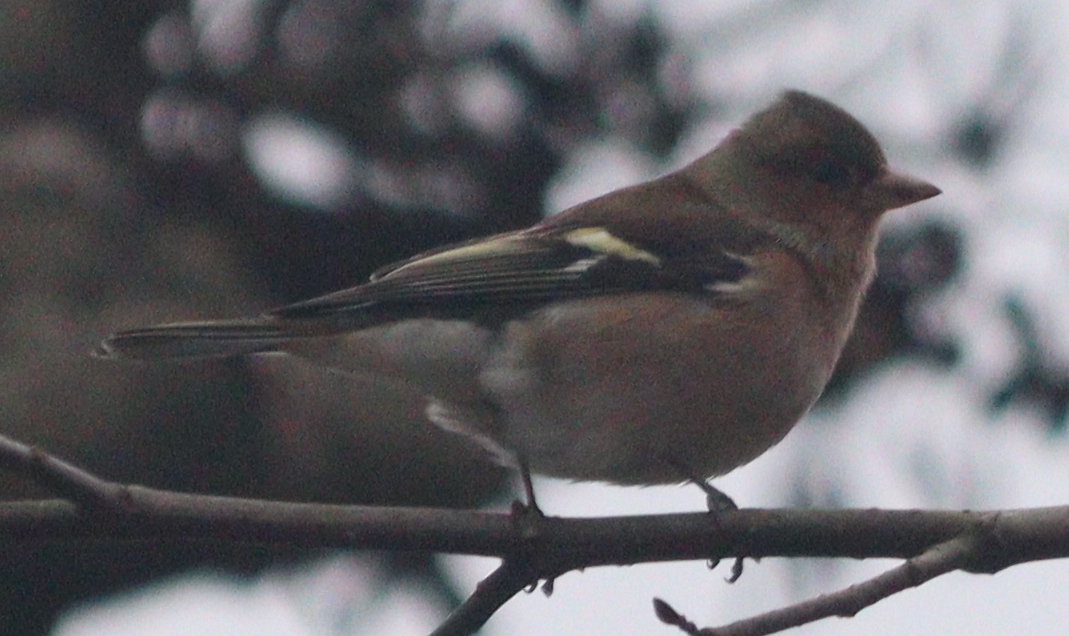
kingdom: Animalia
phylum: Chordata
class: Aves
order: Passeriformes
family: Fringillidae
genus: Fringilla
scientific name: Fringilla coelebs
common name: Common chaffinch
